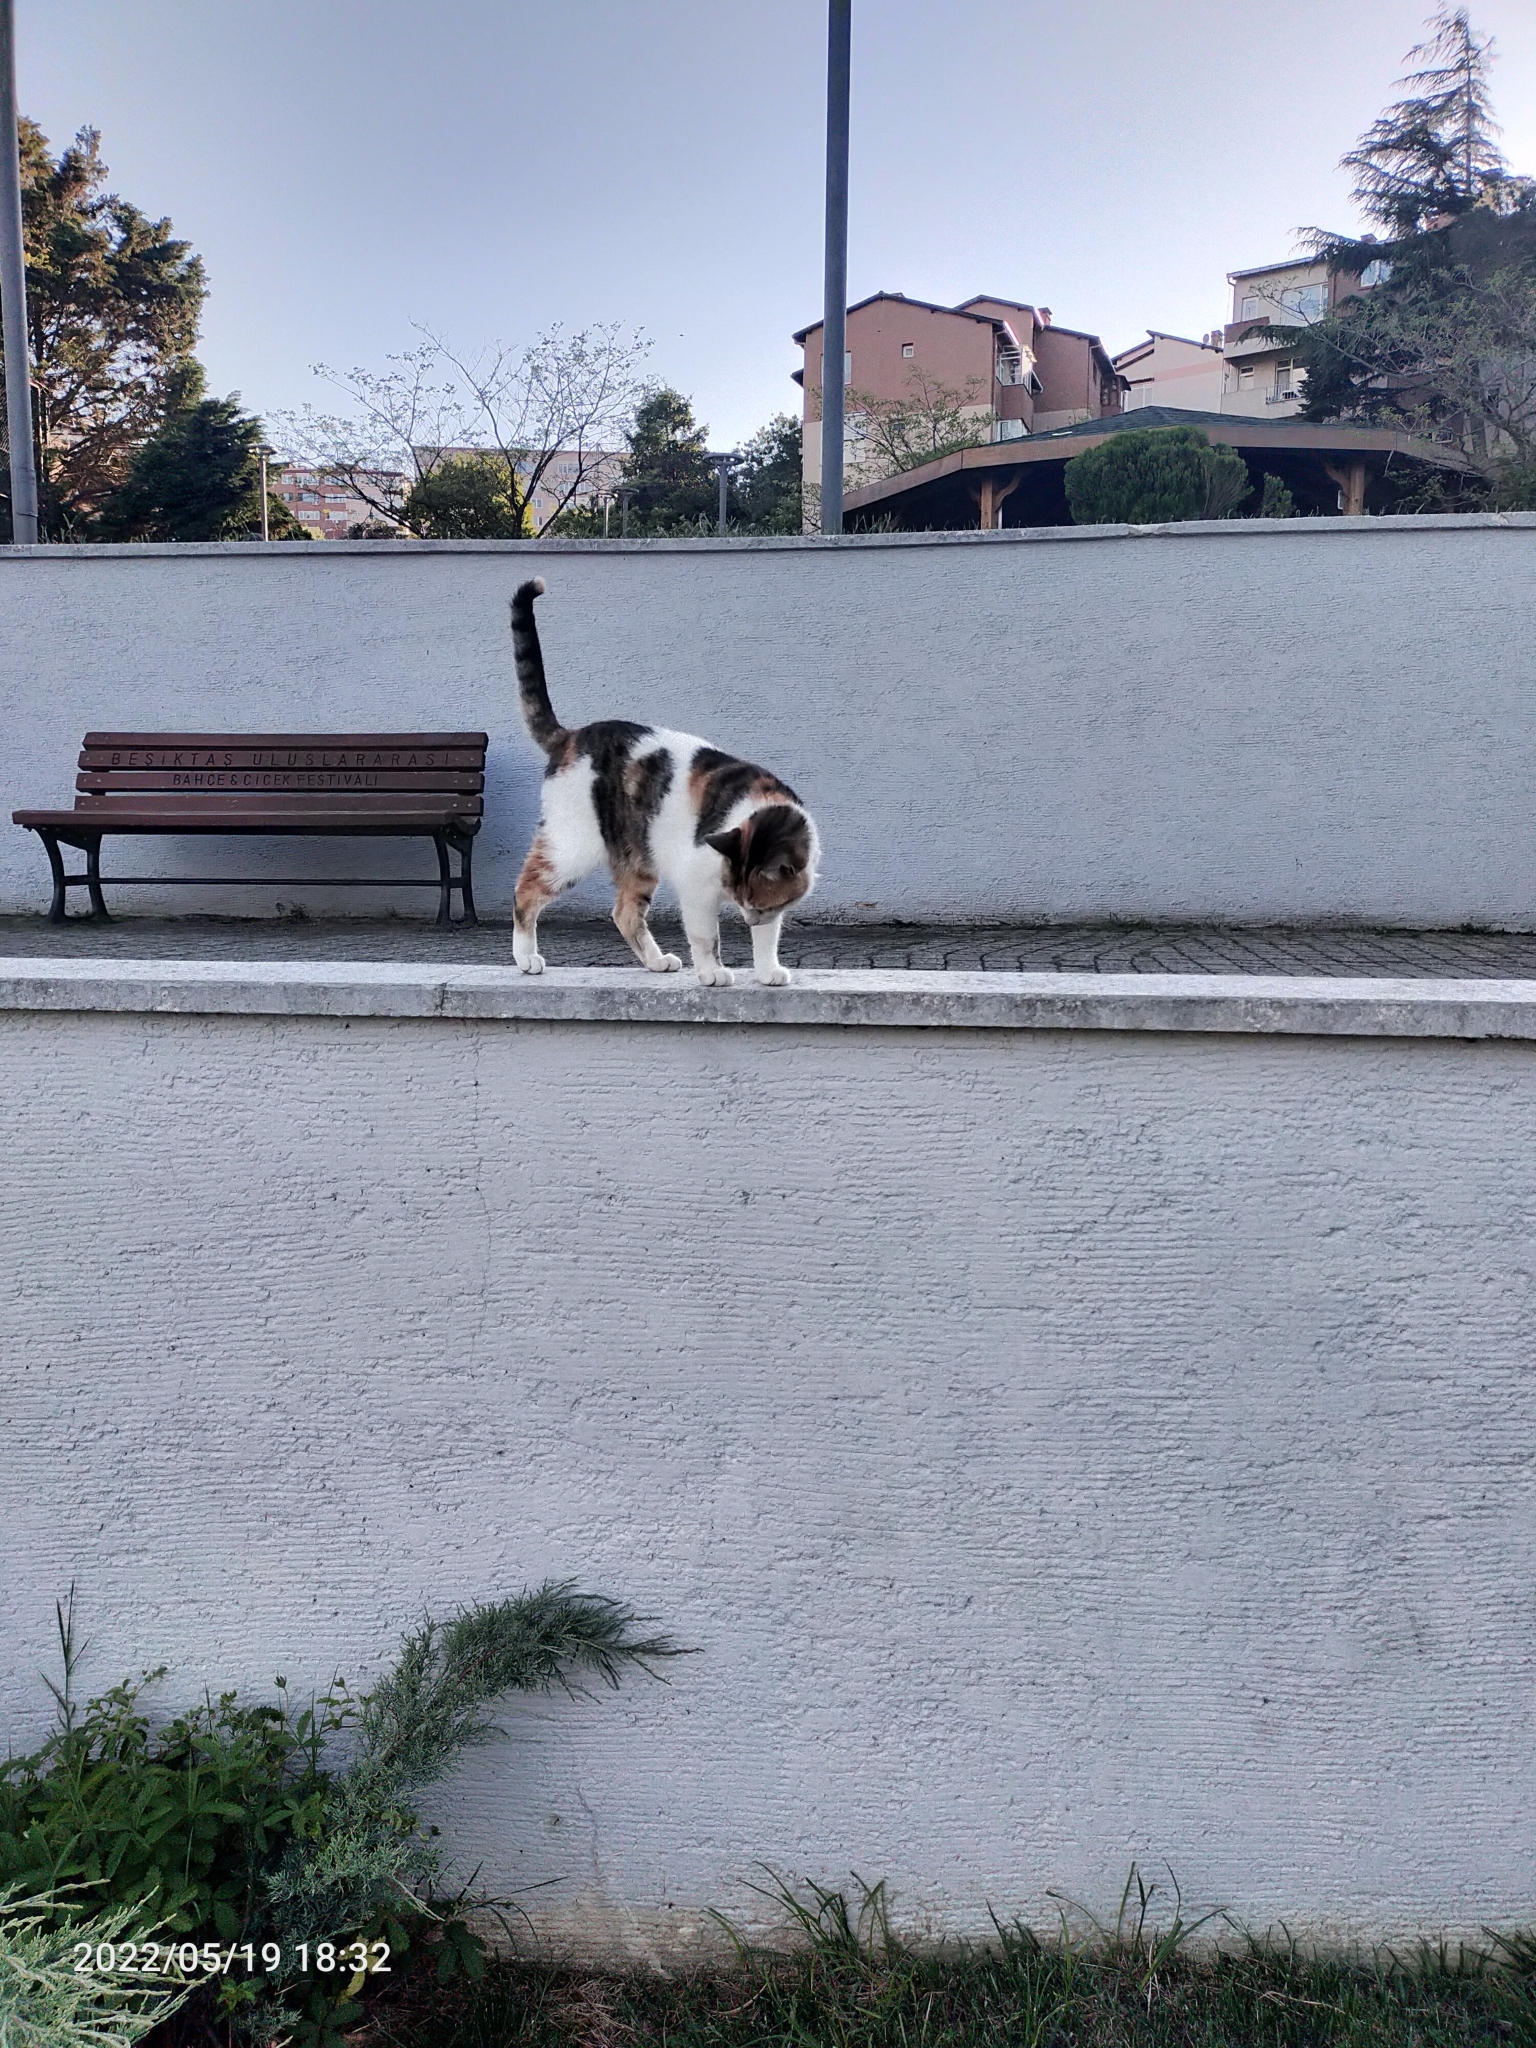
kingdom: Animalia
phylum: Chordata
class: Mammalia
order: Carnivora
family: Felidae
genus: Felis
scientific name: Felis catus
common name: Domestic cat
